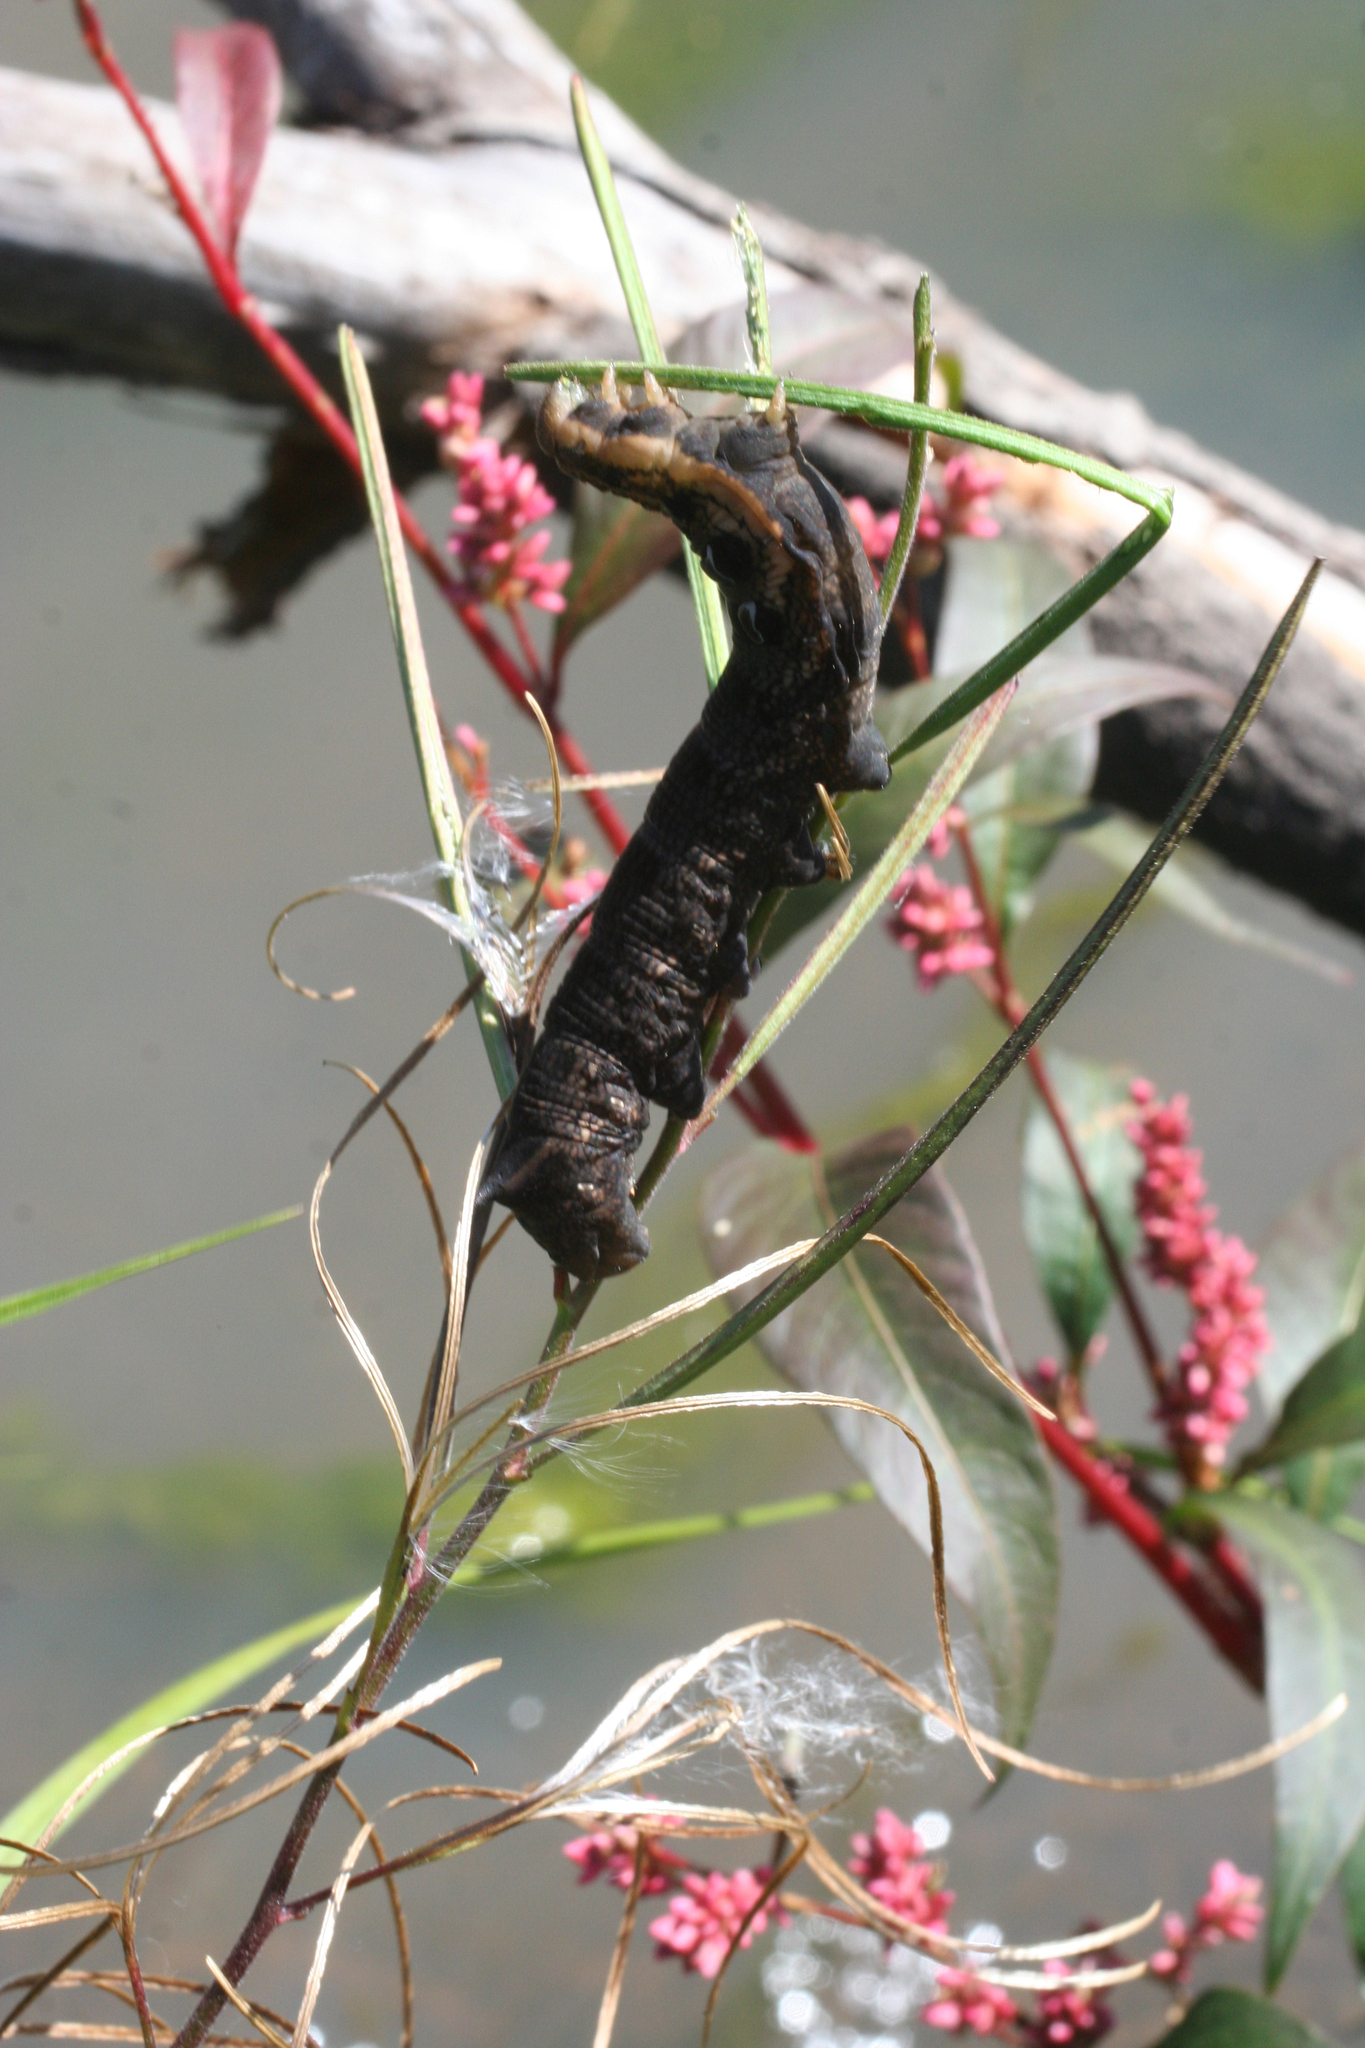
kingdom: Animalia
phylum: Arthropoda
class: Insecta
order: Lepidoptera
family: Sphingidae
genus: Deilephila
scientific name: Deilephila elpenor
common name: Elephant hawk-moth
